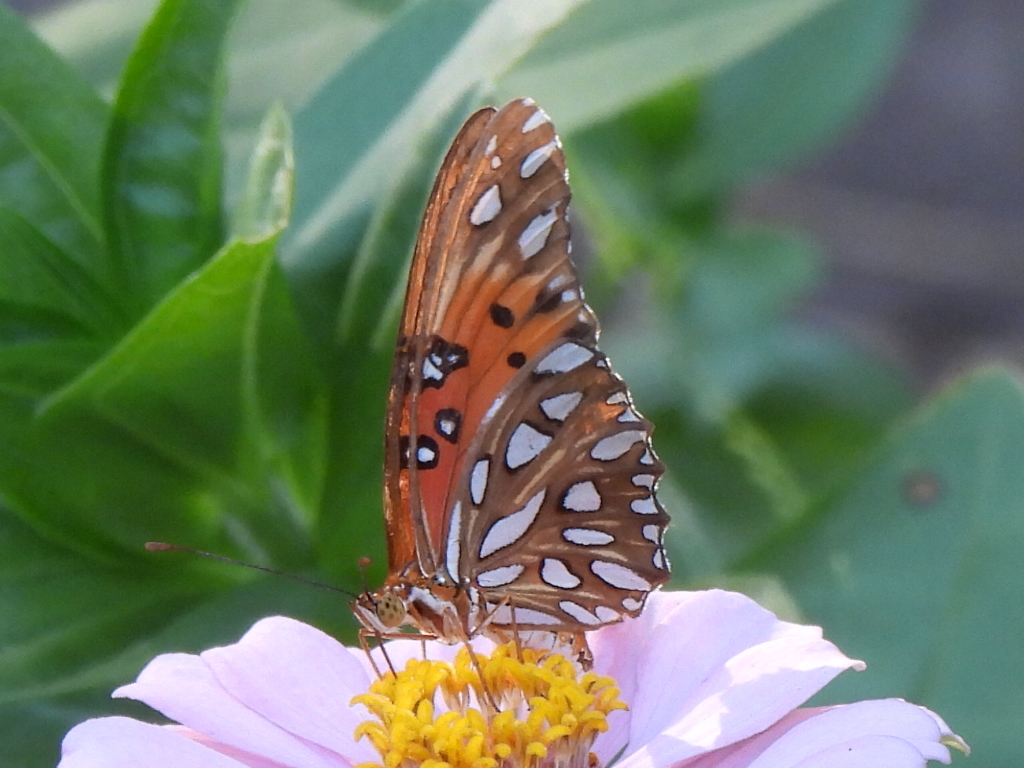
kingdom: Animalia
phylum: Arthropoda
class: Insecta
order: Lepidoptera
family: Nymphalidae
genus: Dione
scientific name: Dione vanillae
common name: Gulf fritillary
